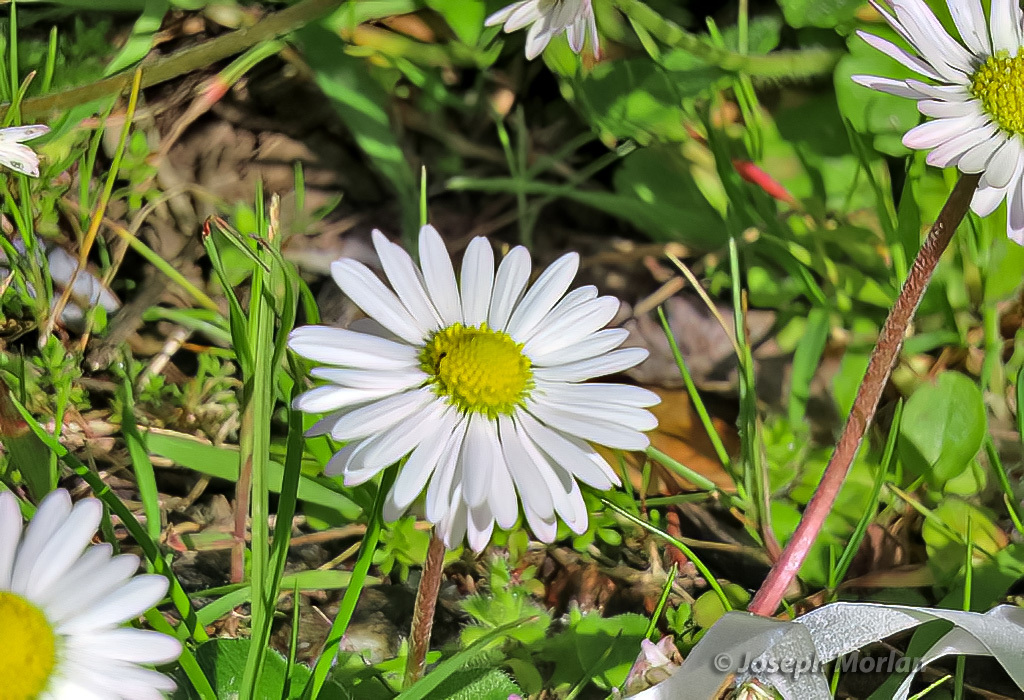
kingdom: Plantae
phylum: Tracheophyta
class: Magnoliopsida
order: Asterales
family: Asteraceae
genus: Bellis
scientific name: Bellis perennis
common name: Lawndaisy
